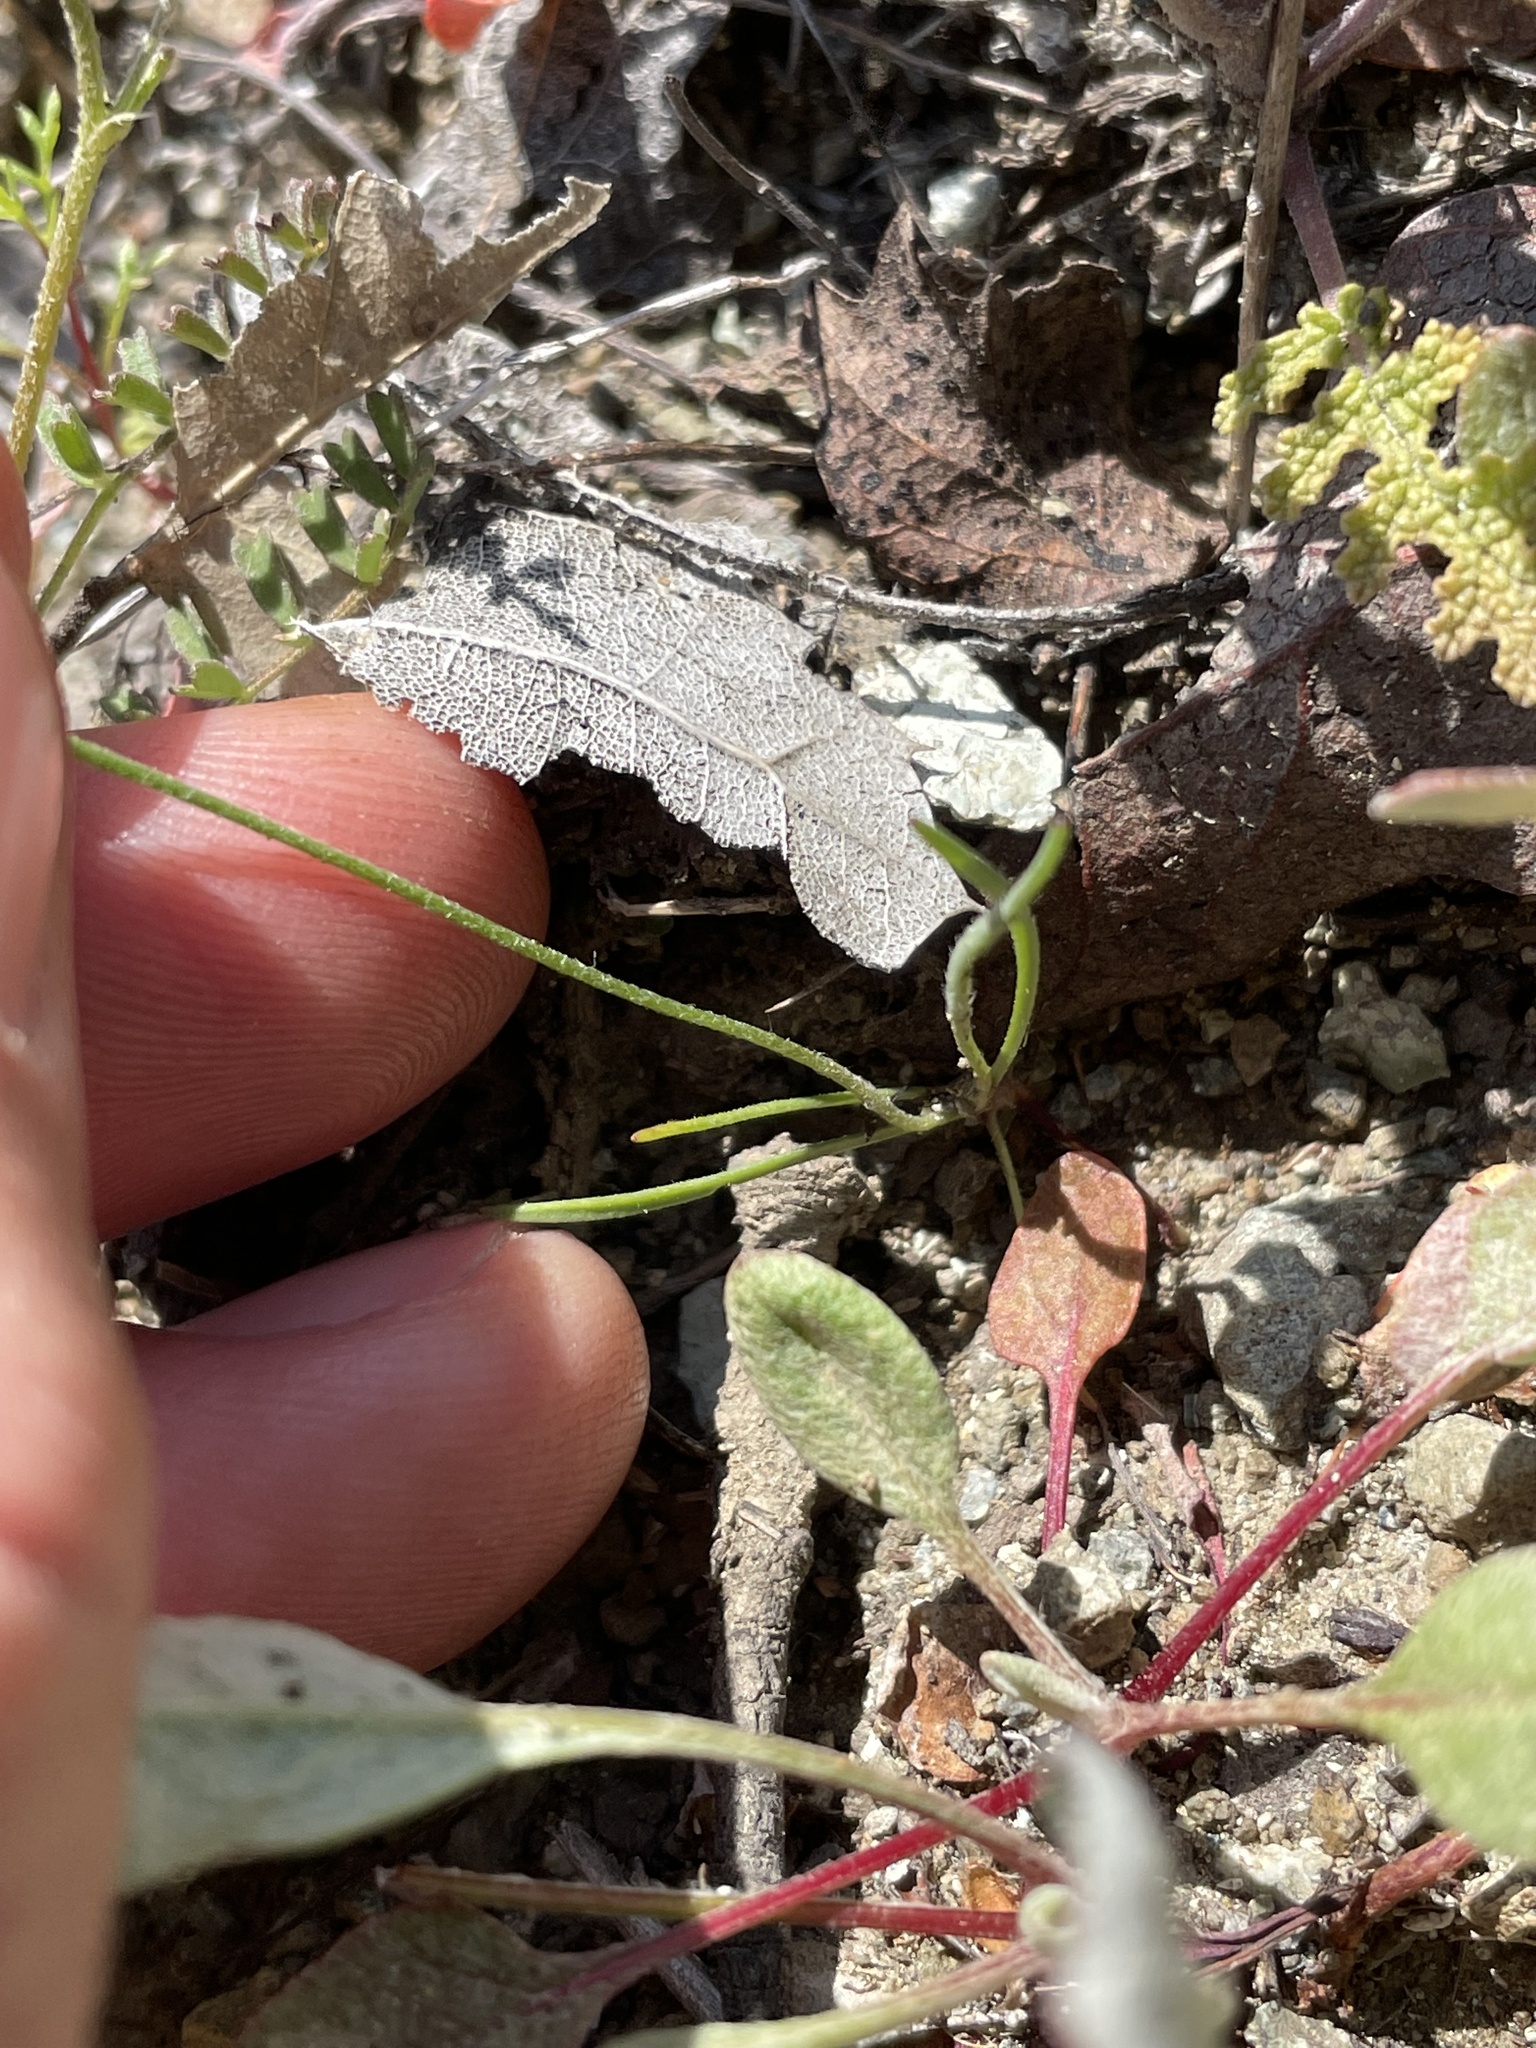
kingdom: Plantae
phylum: Tracheophyta
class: Magnoliopsida
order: Lamiales
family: Plantaginaceae
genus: Plantago
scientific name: Plantago erecta
